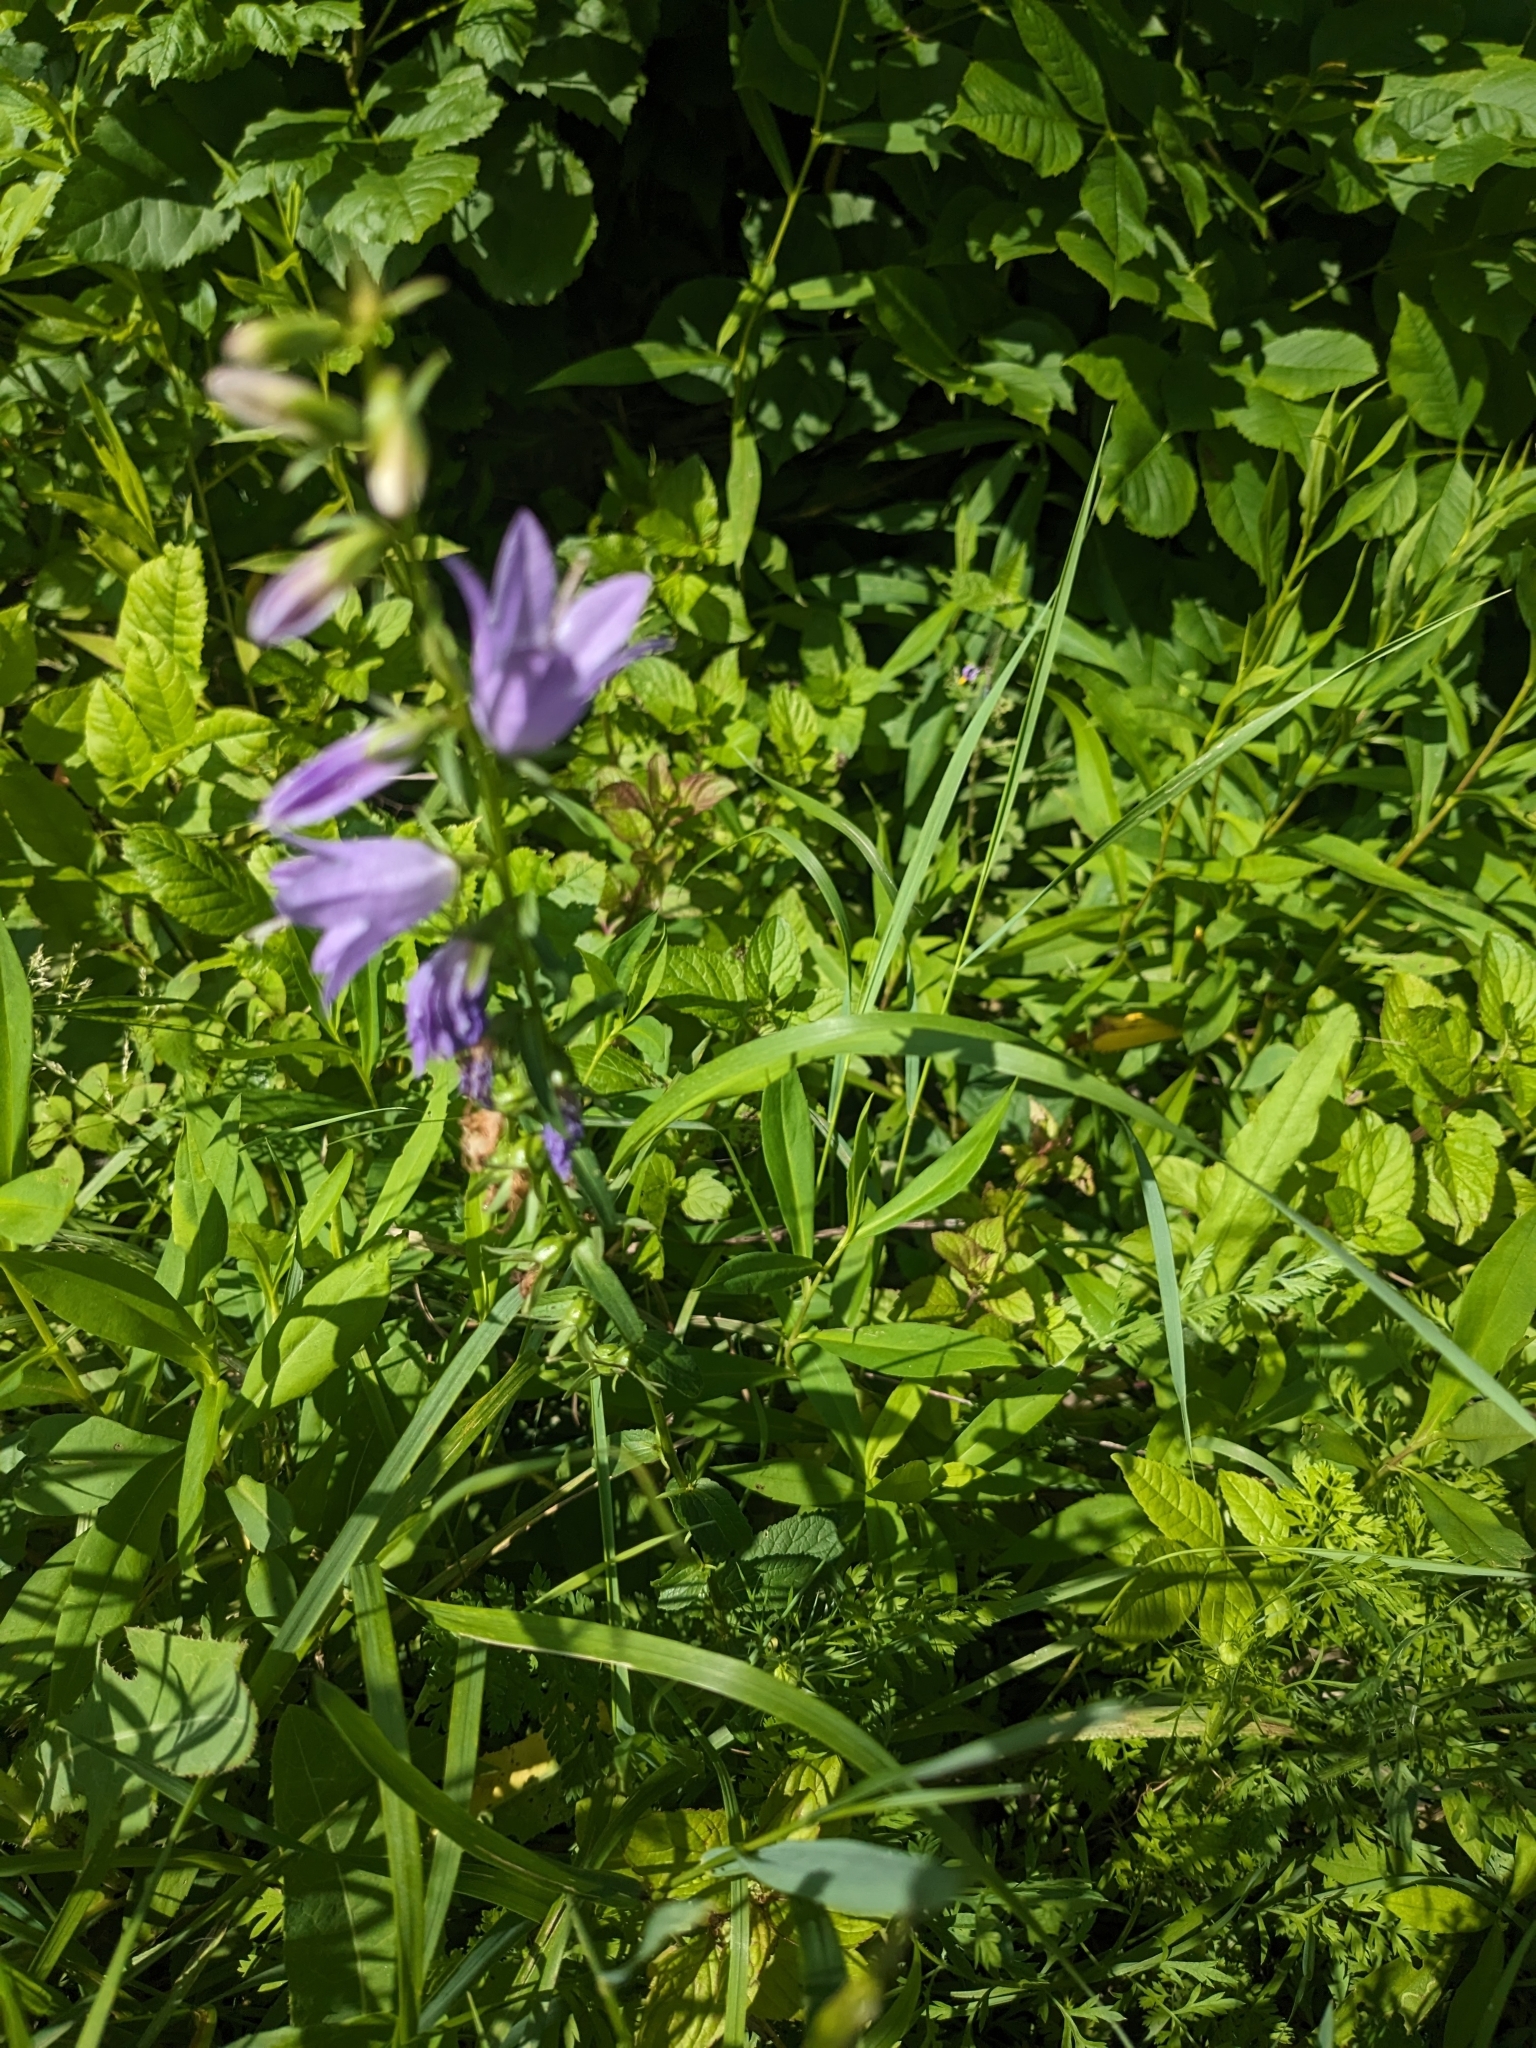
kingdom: Plantae
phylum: Tracheophyta
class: Magnoliopsida
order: Asterales
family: Campanulaceae
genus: Campanula
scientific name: Campanula rapunculoides
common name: Creeping bellflower
